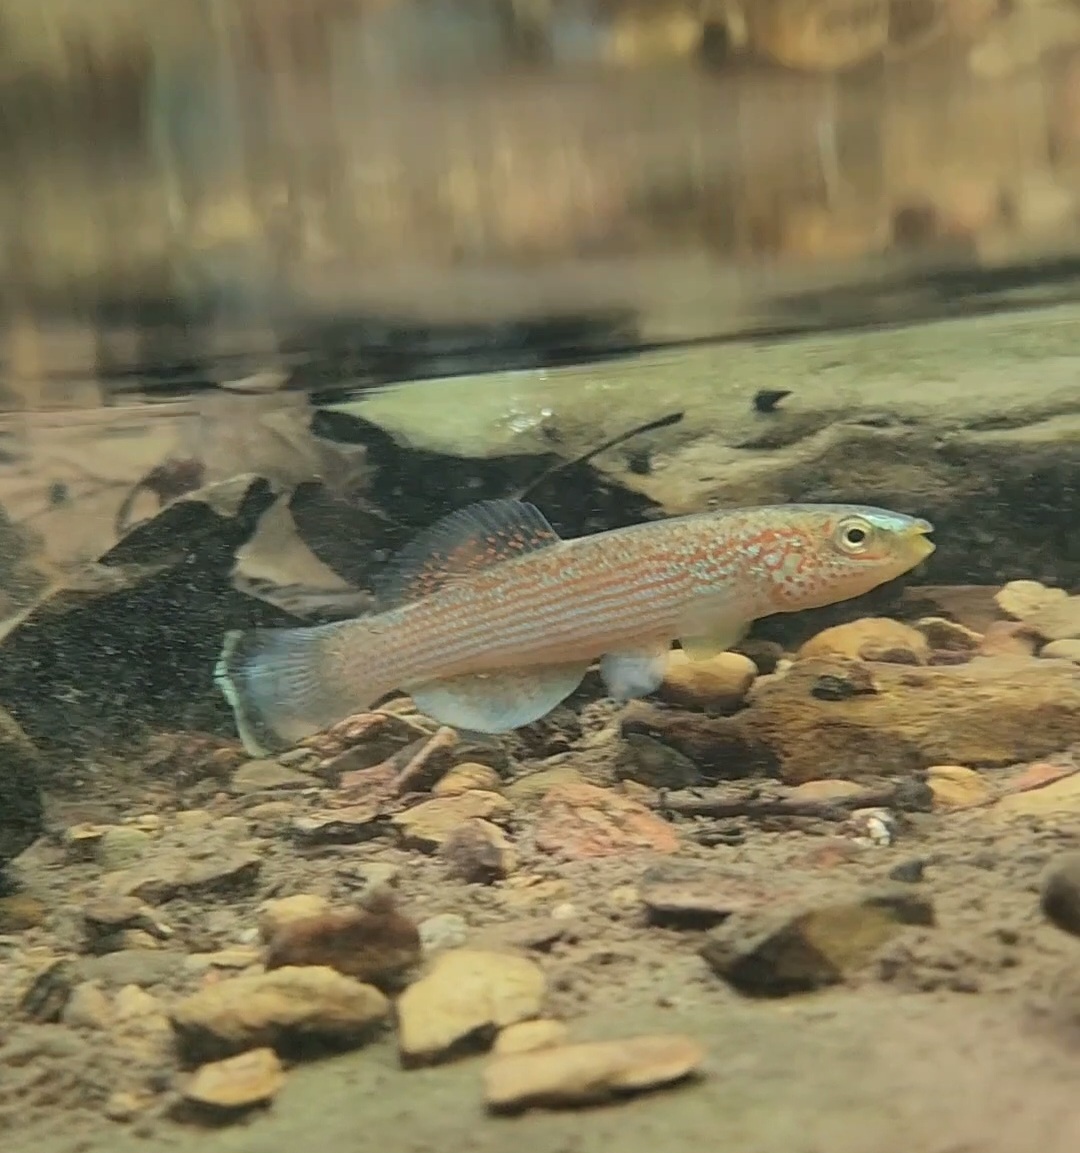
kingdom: Animalia
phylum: Chordata
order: Cyprinodontiformes
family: Fundulidae
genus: Fundulus
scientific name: Fundulus catenatus
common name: Northern studfish
